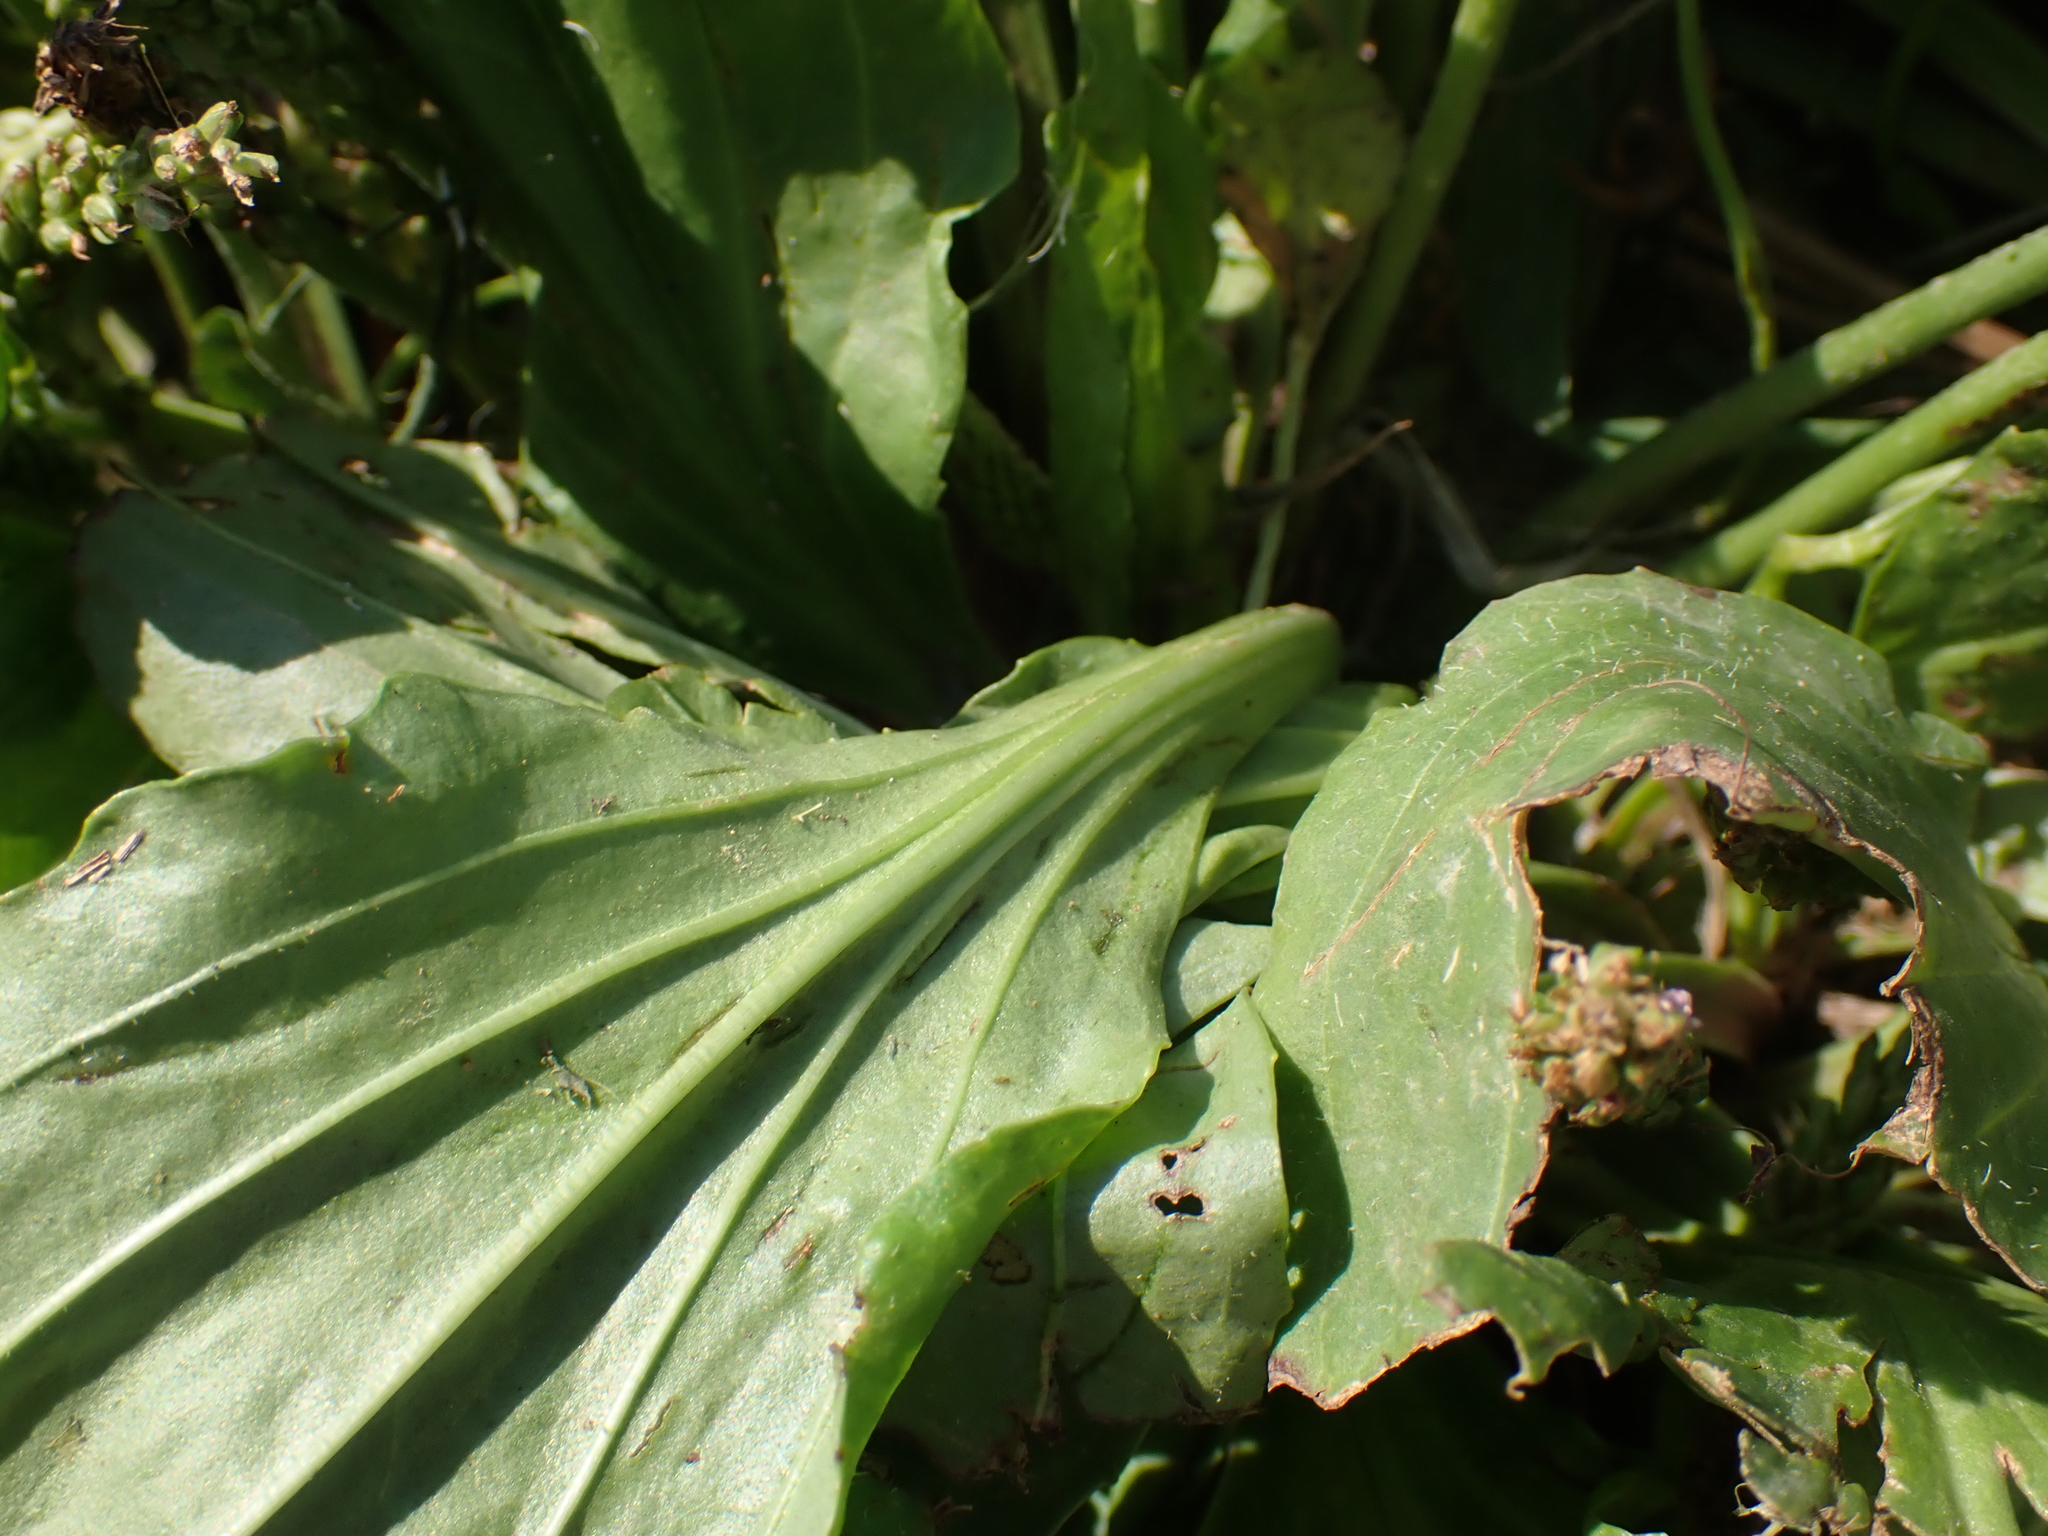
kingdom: Plantae
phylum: Tracheophyta
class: Magnoliopsida
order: Lamiales
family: Plantaginaceae
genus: Plantago
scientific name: Plantago rugelii
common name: American plantain
